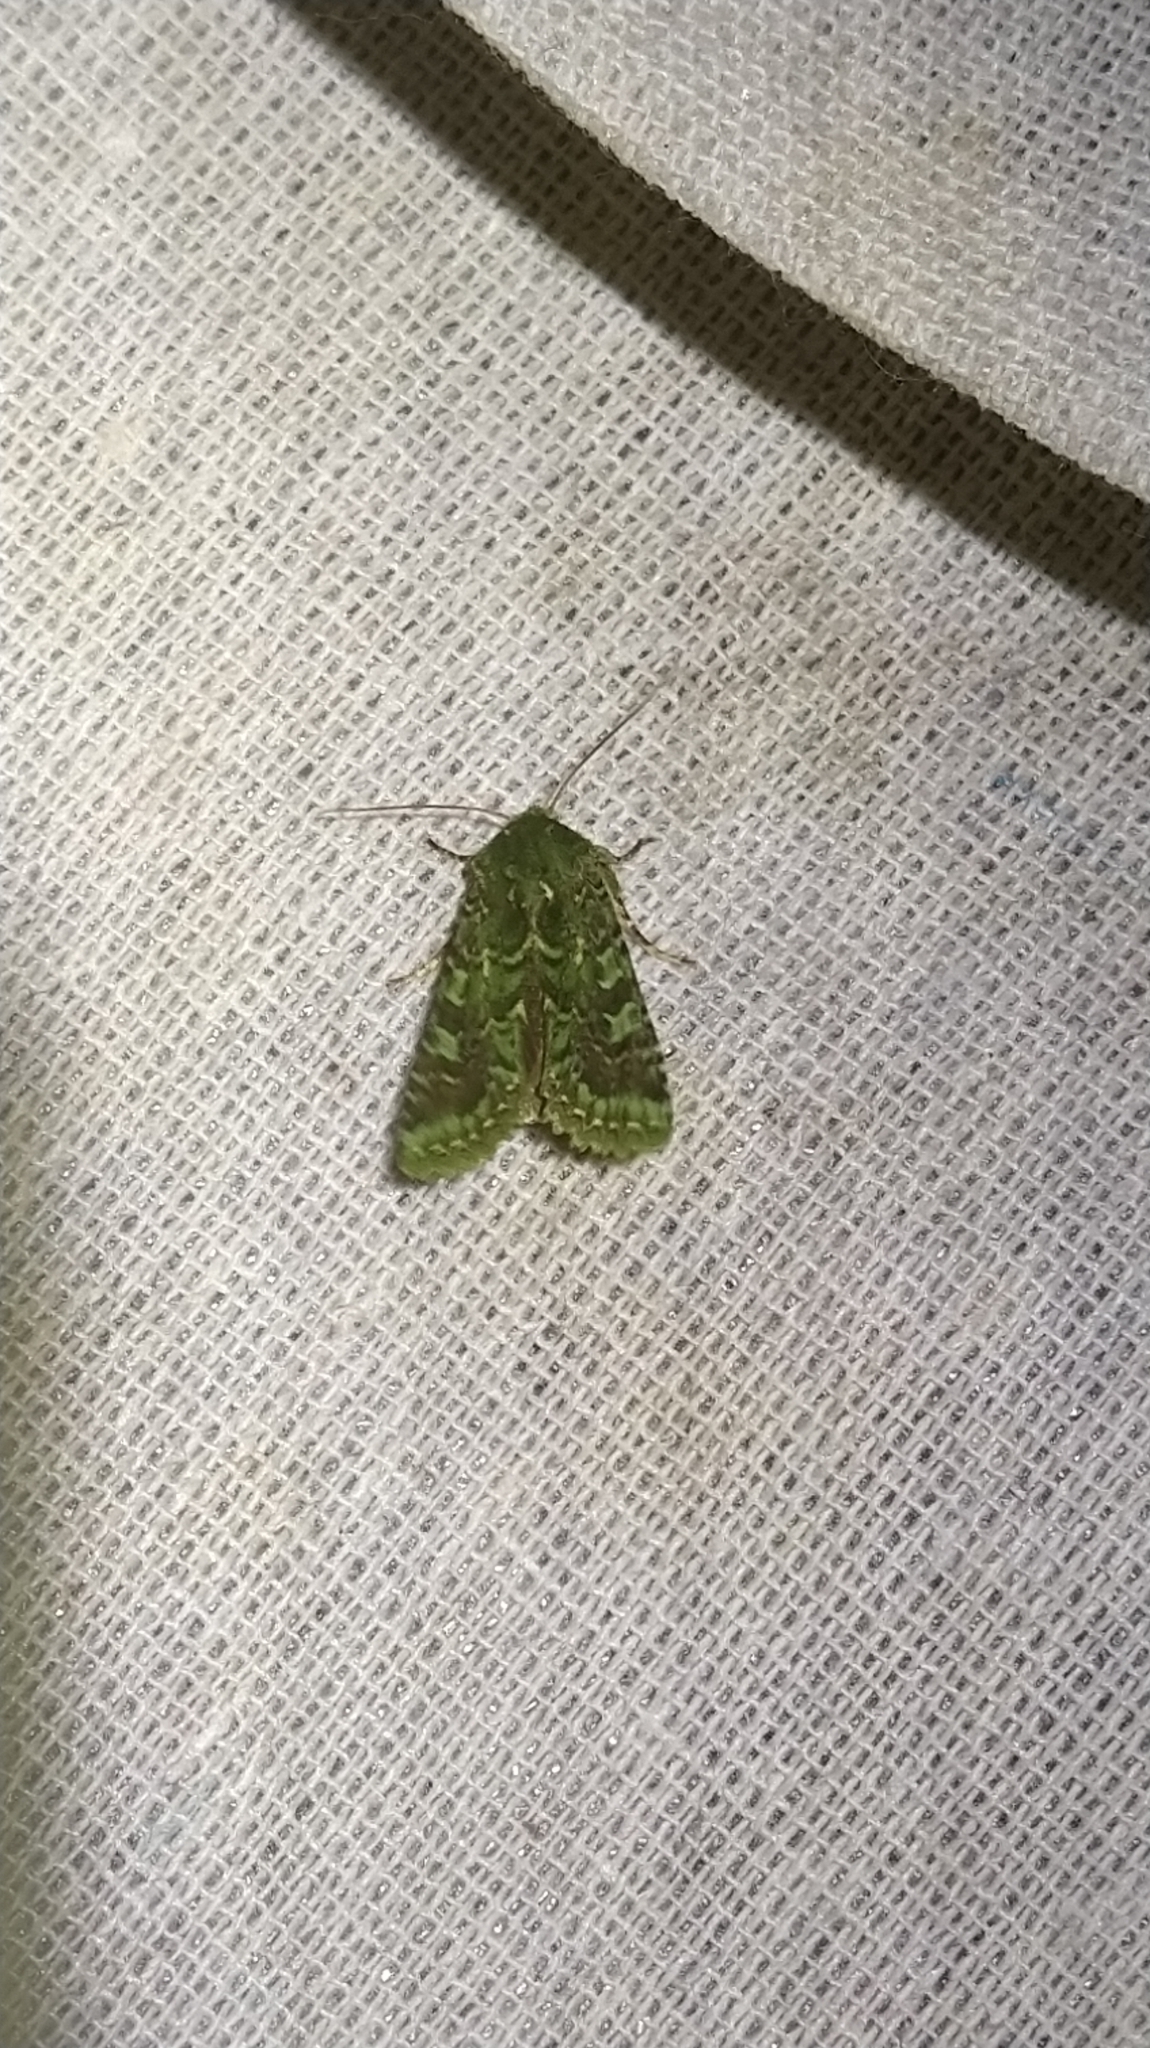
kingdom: Animalia
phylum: Arthropoda
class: Insecta
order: Lepidoptera
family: Noctuidae
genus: Feredayia
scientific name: Feredayia grammosa
